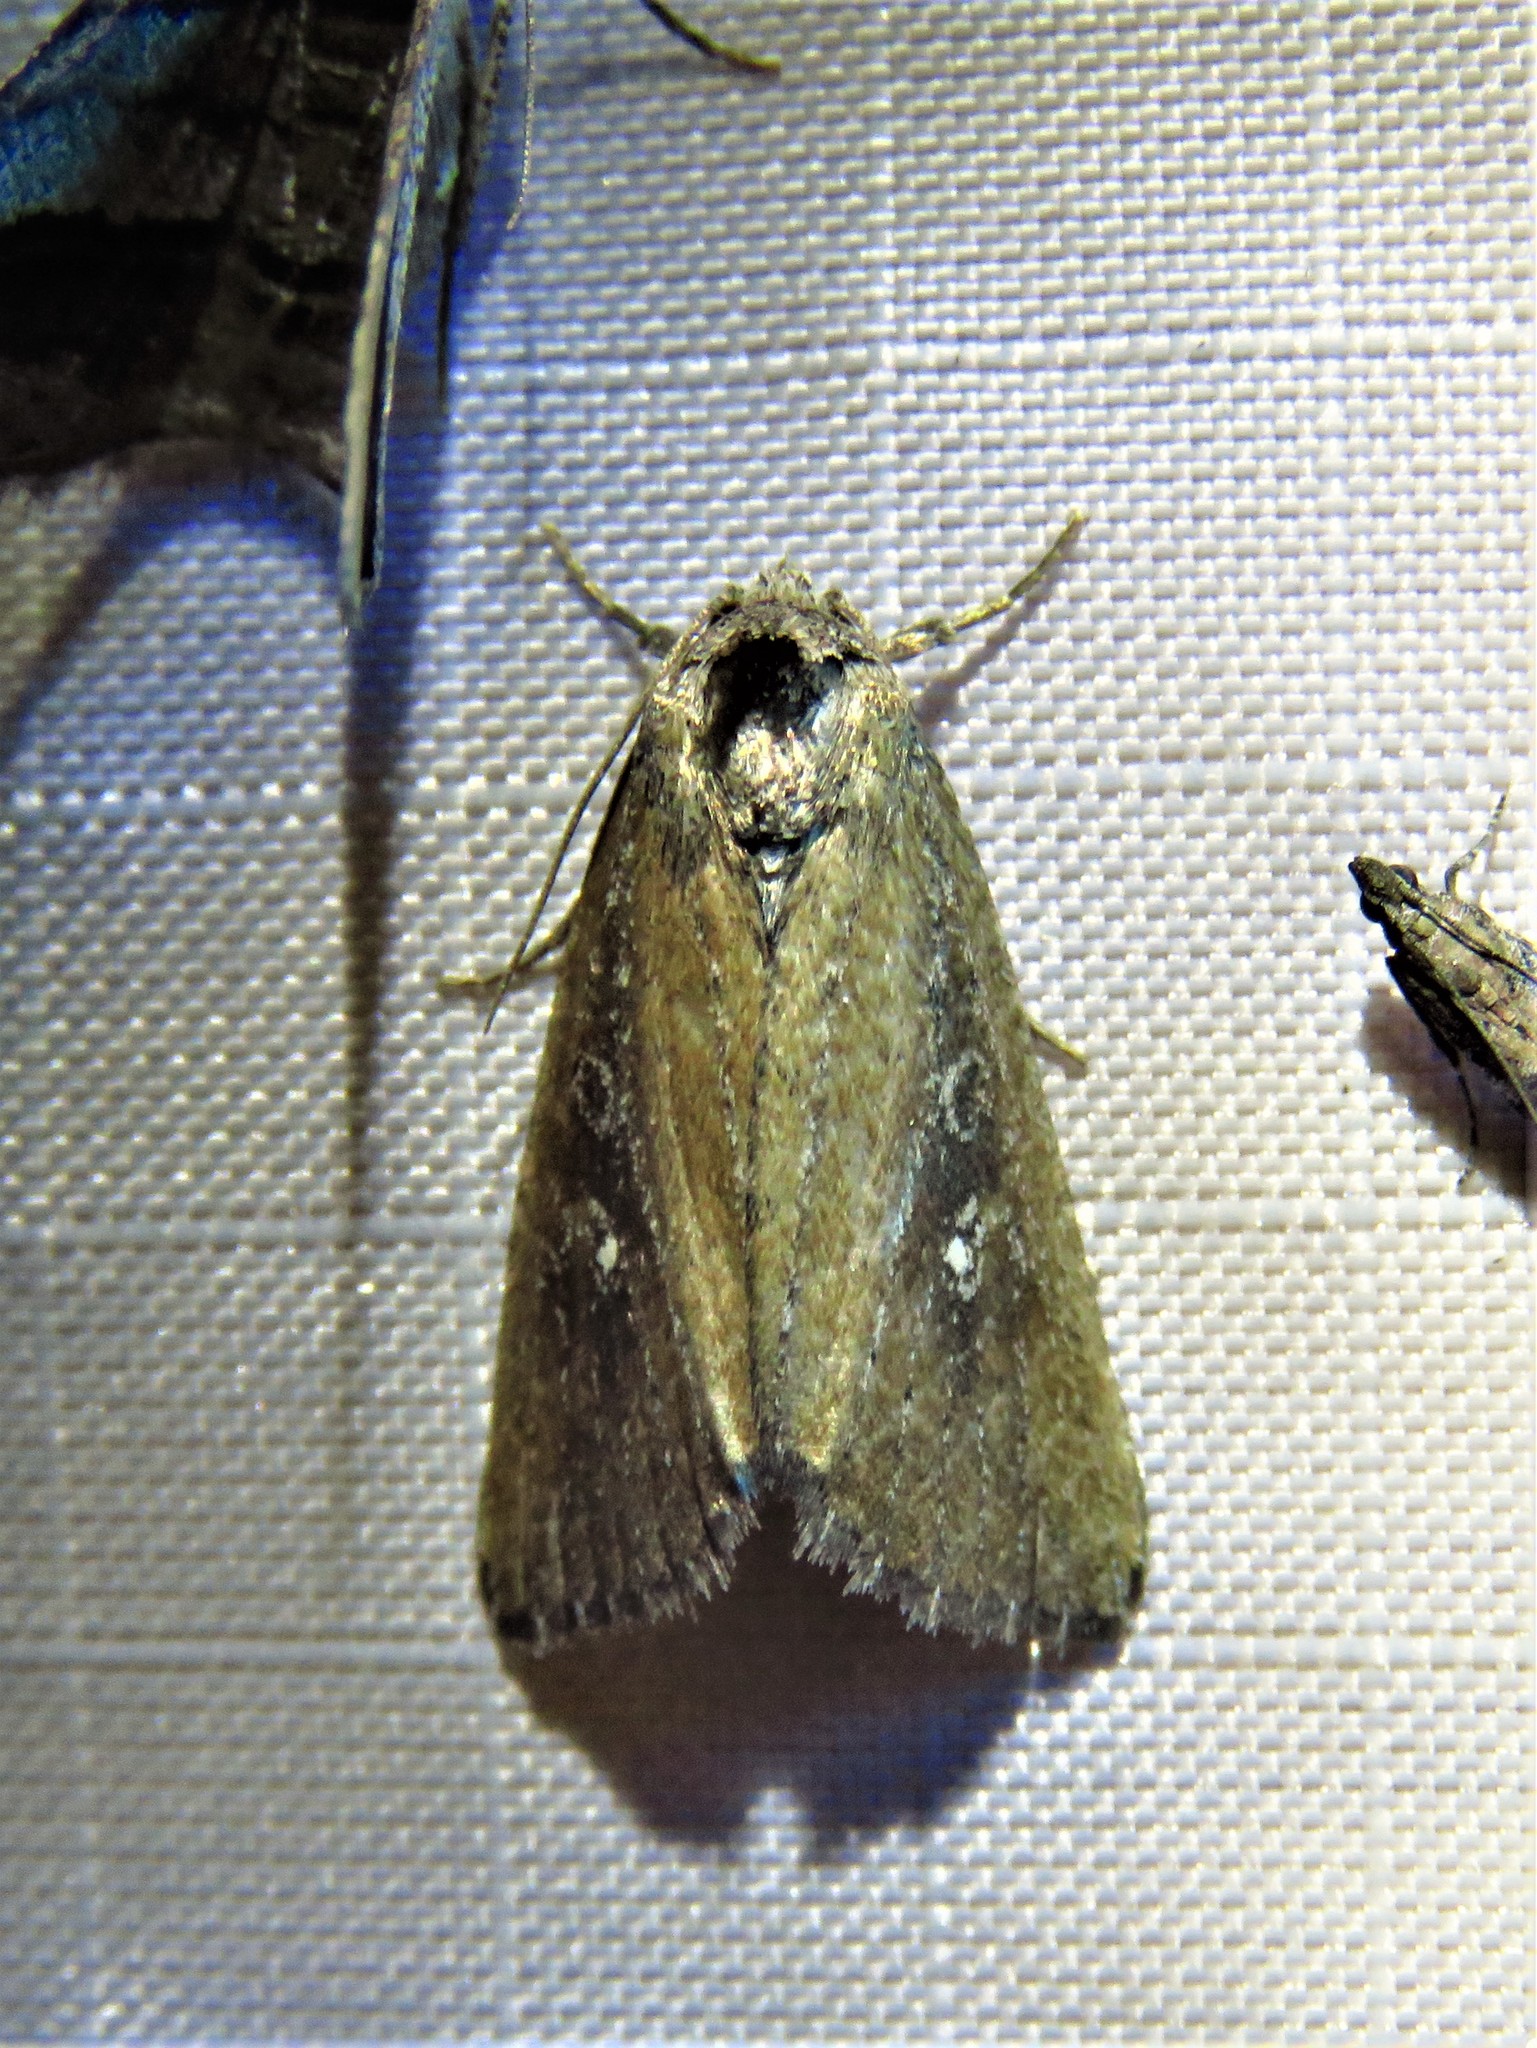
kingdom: Animalia
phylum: Arthropoda
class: Insecta
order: Lepidoptera
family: Noctuidae
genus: Condica
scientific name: Condica videns
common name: White-dotted groundling
